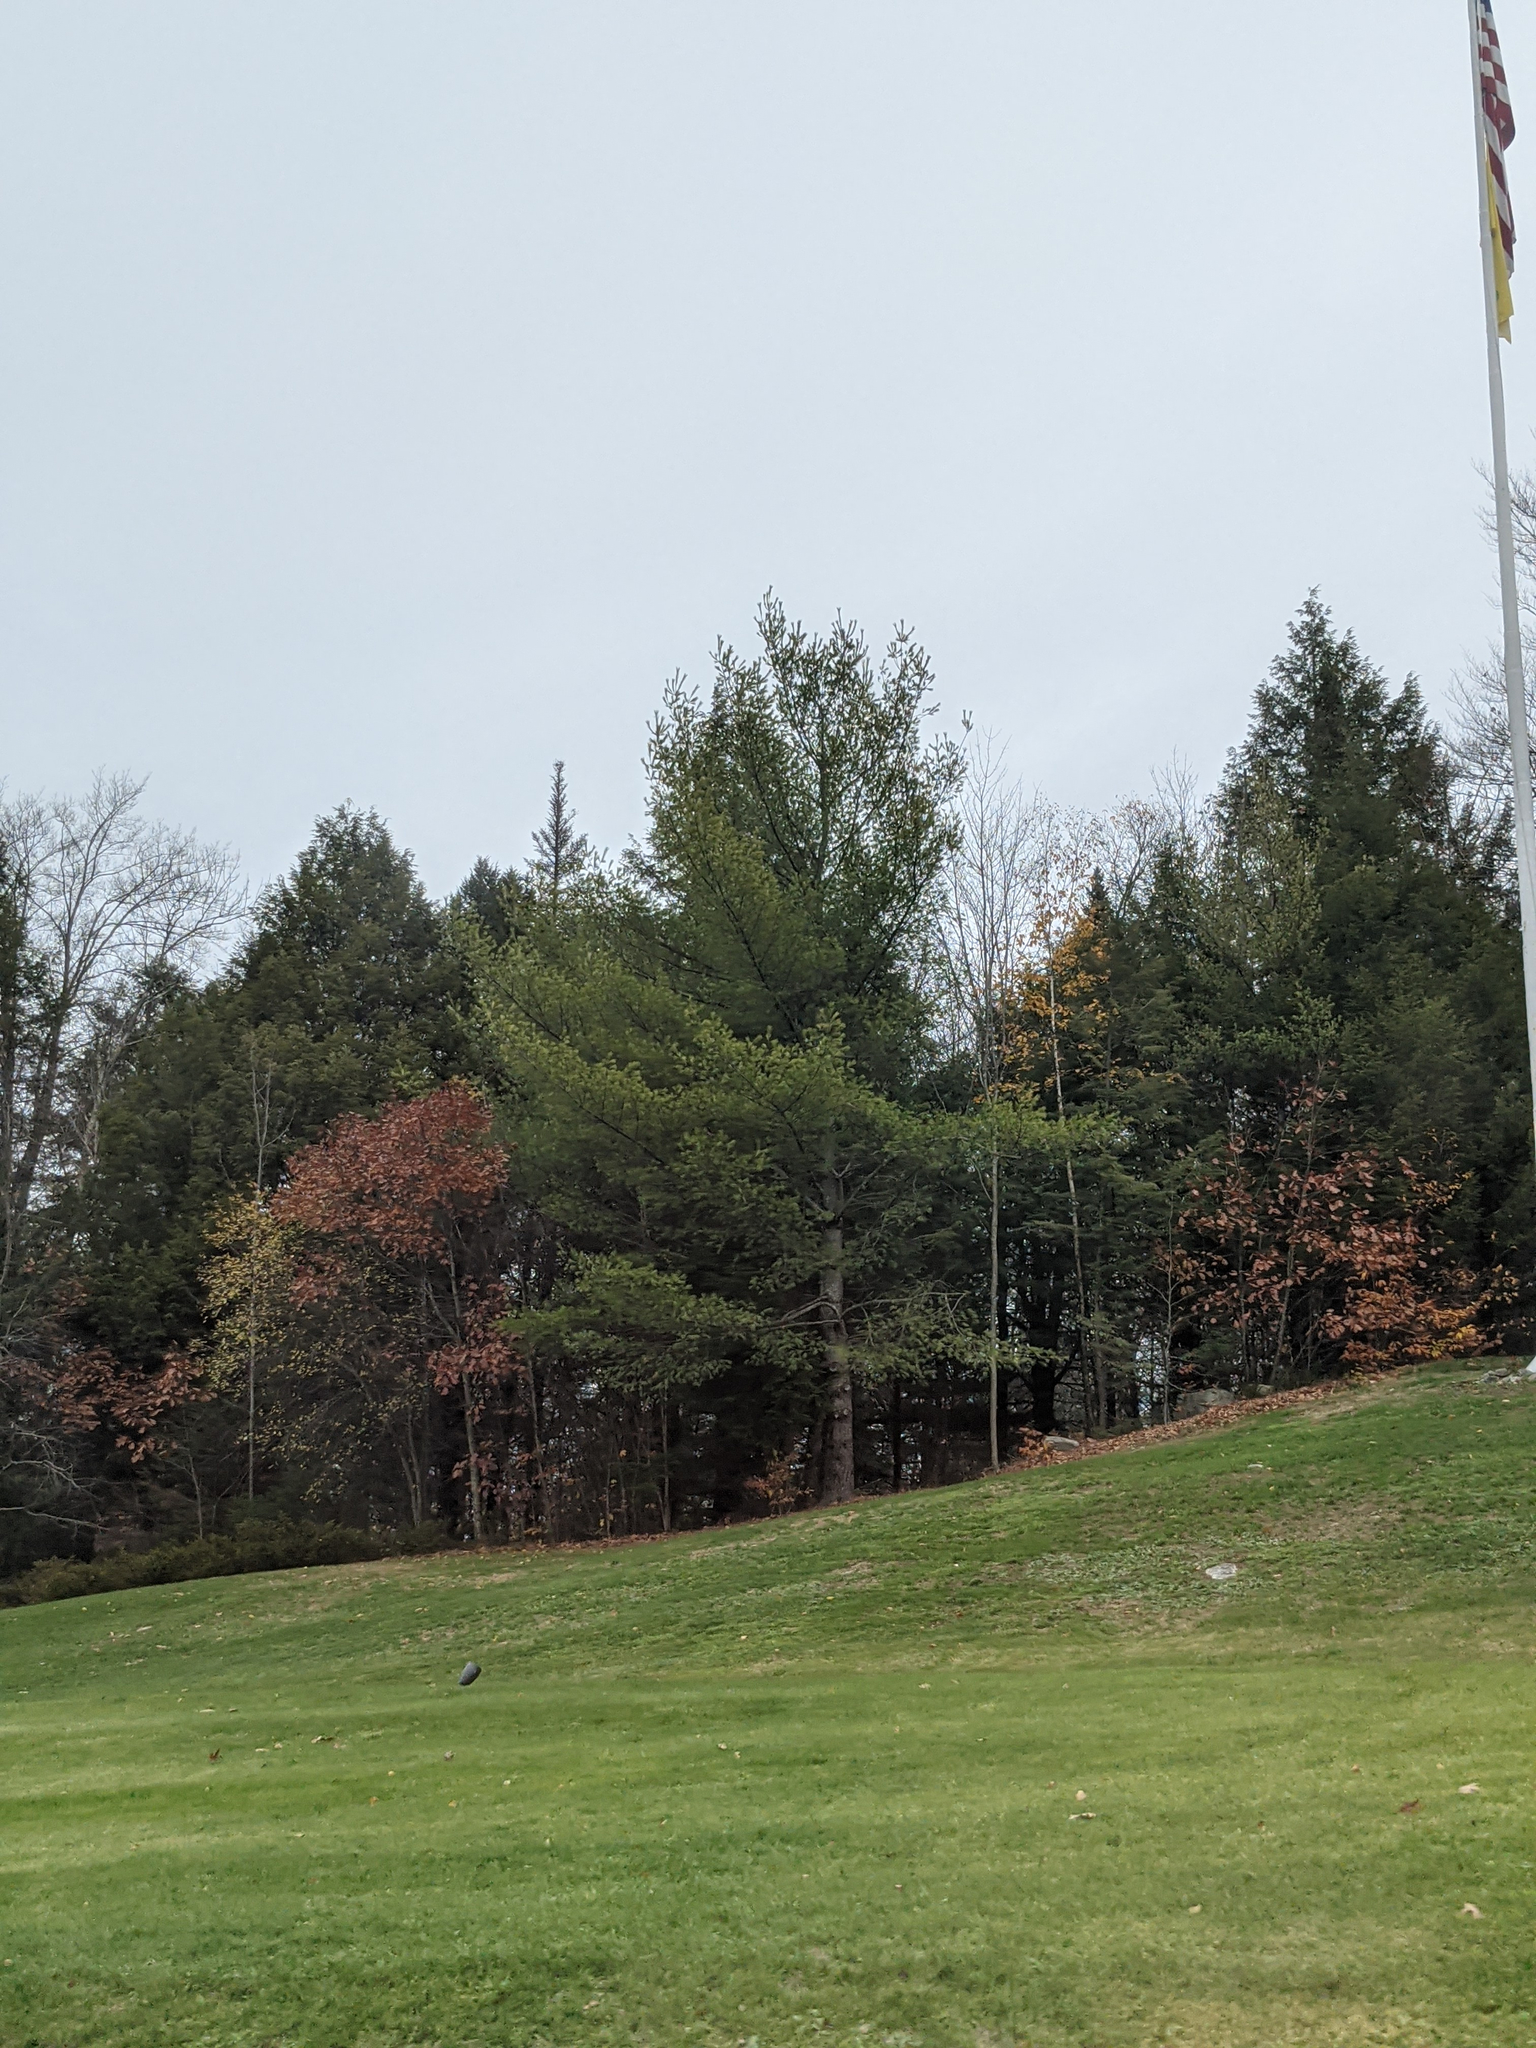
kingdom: Plantae
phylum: Tracheophyta
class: Pinopsida
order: Pinales
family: Pinaceae
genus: Pinus
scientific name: Pinus strobus
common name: Weymouth pine
